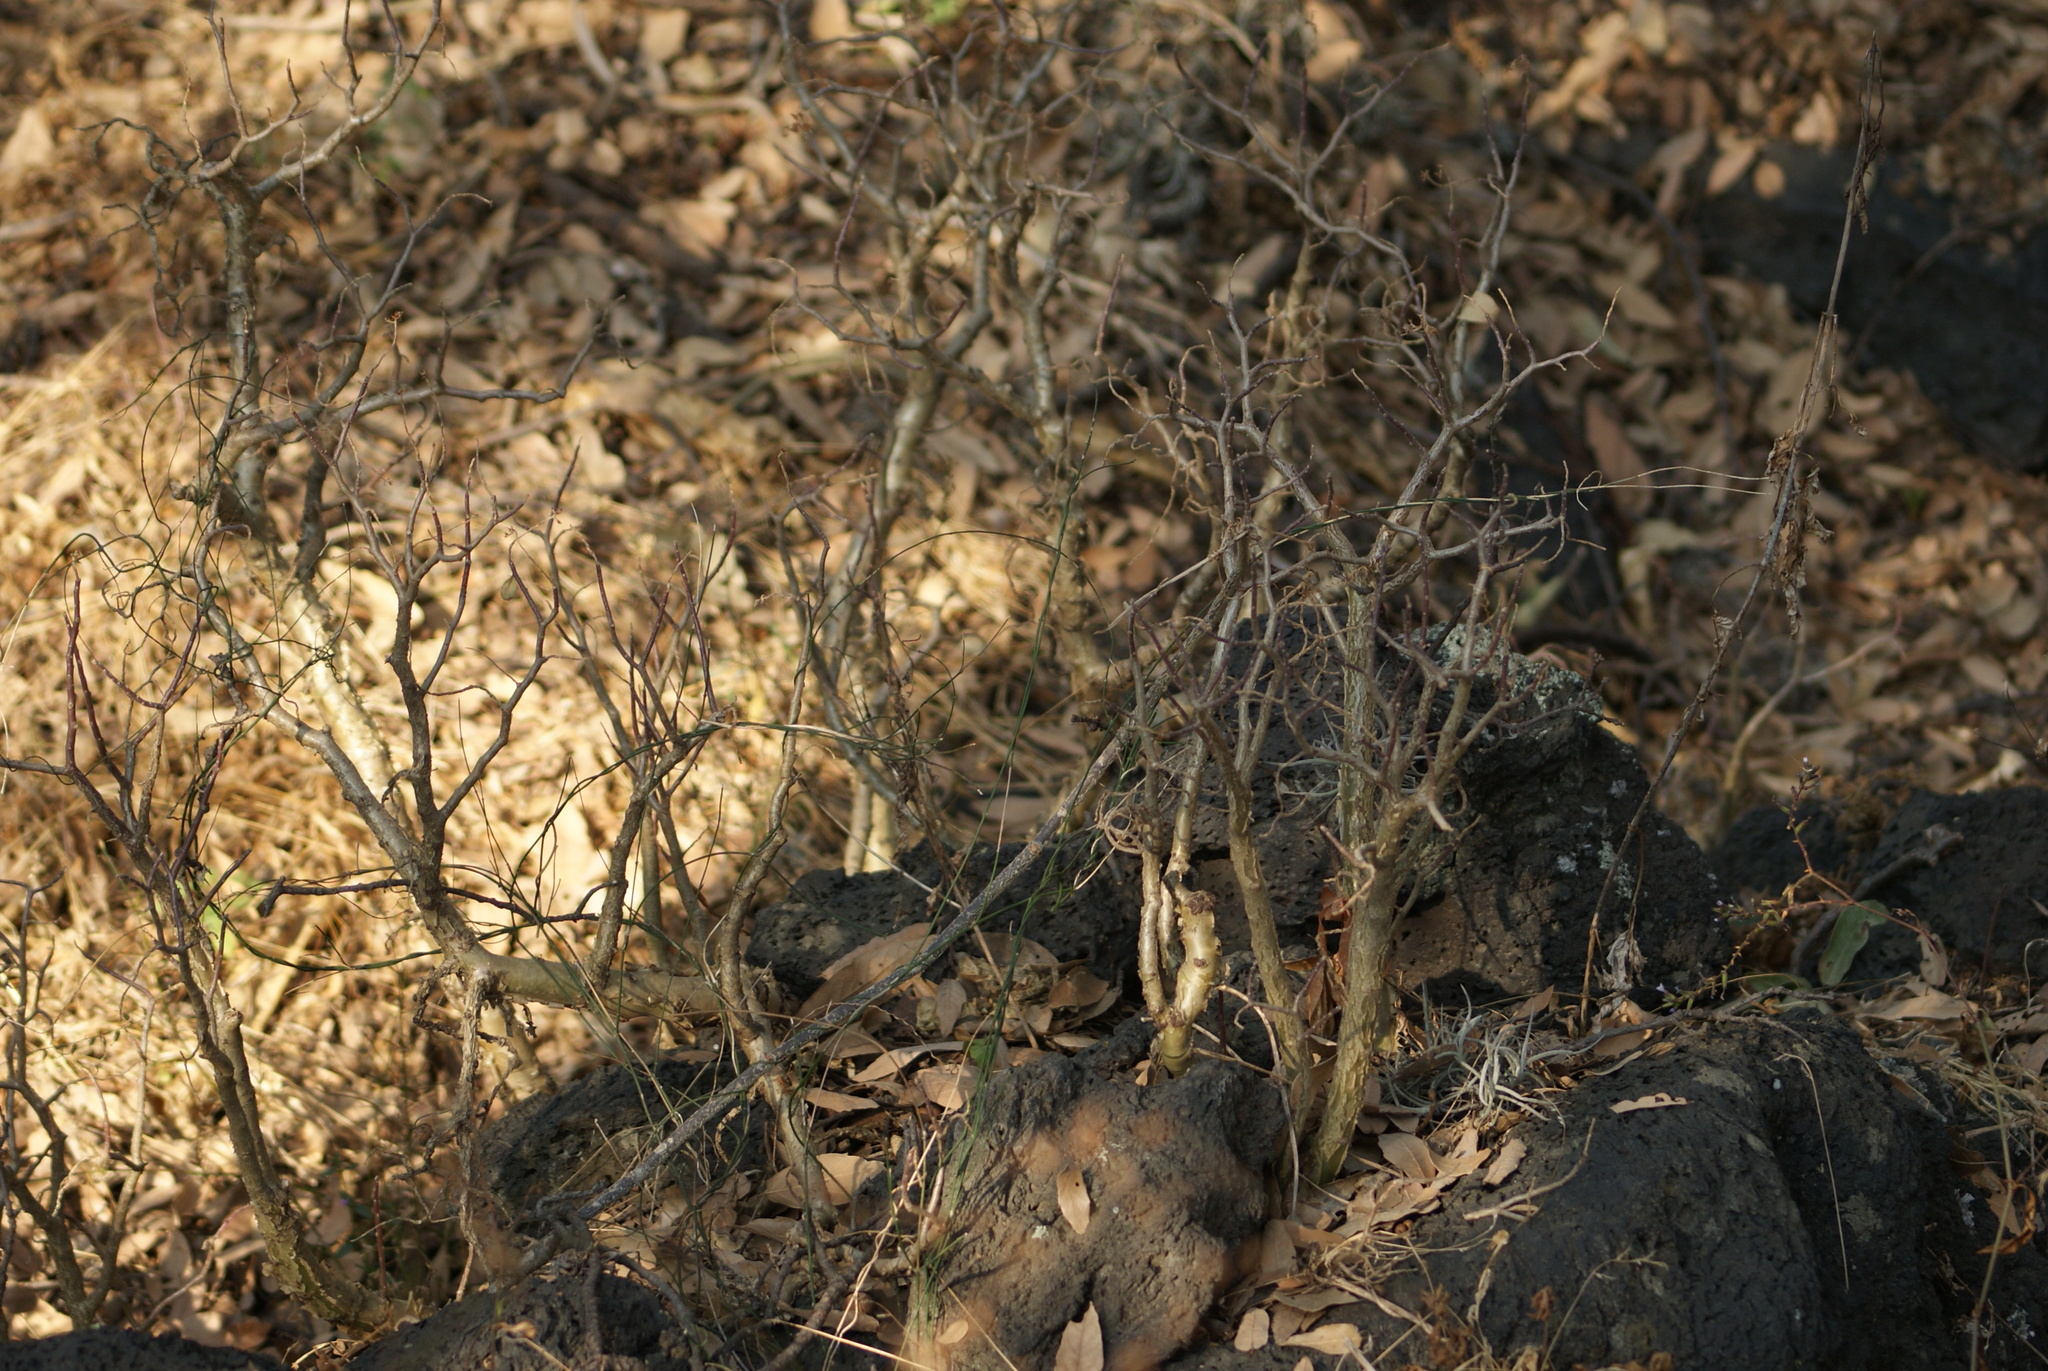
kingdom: Plantae
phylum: Tracheophyta
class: Magnoliopsida
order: Saxifragales
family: Crassulaceae
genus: Sedum
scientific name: Sedum oxypetalum
